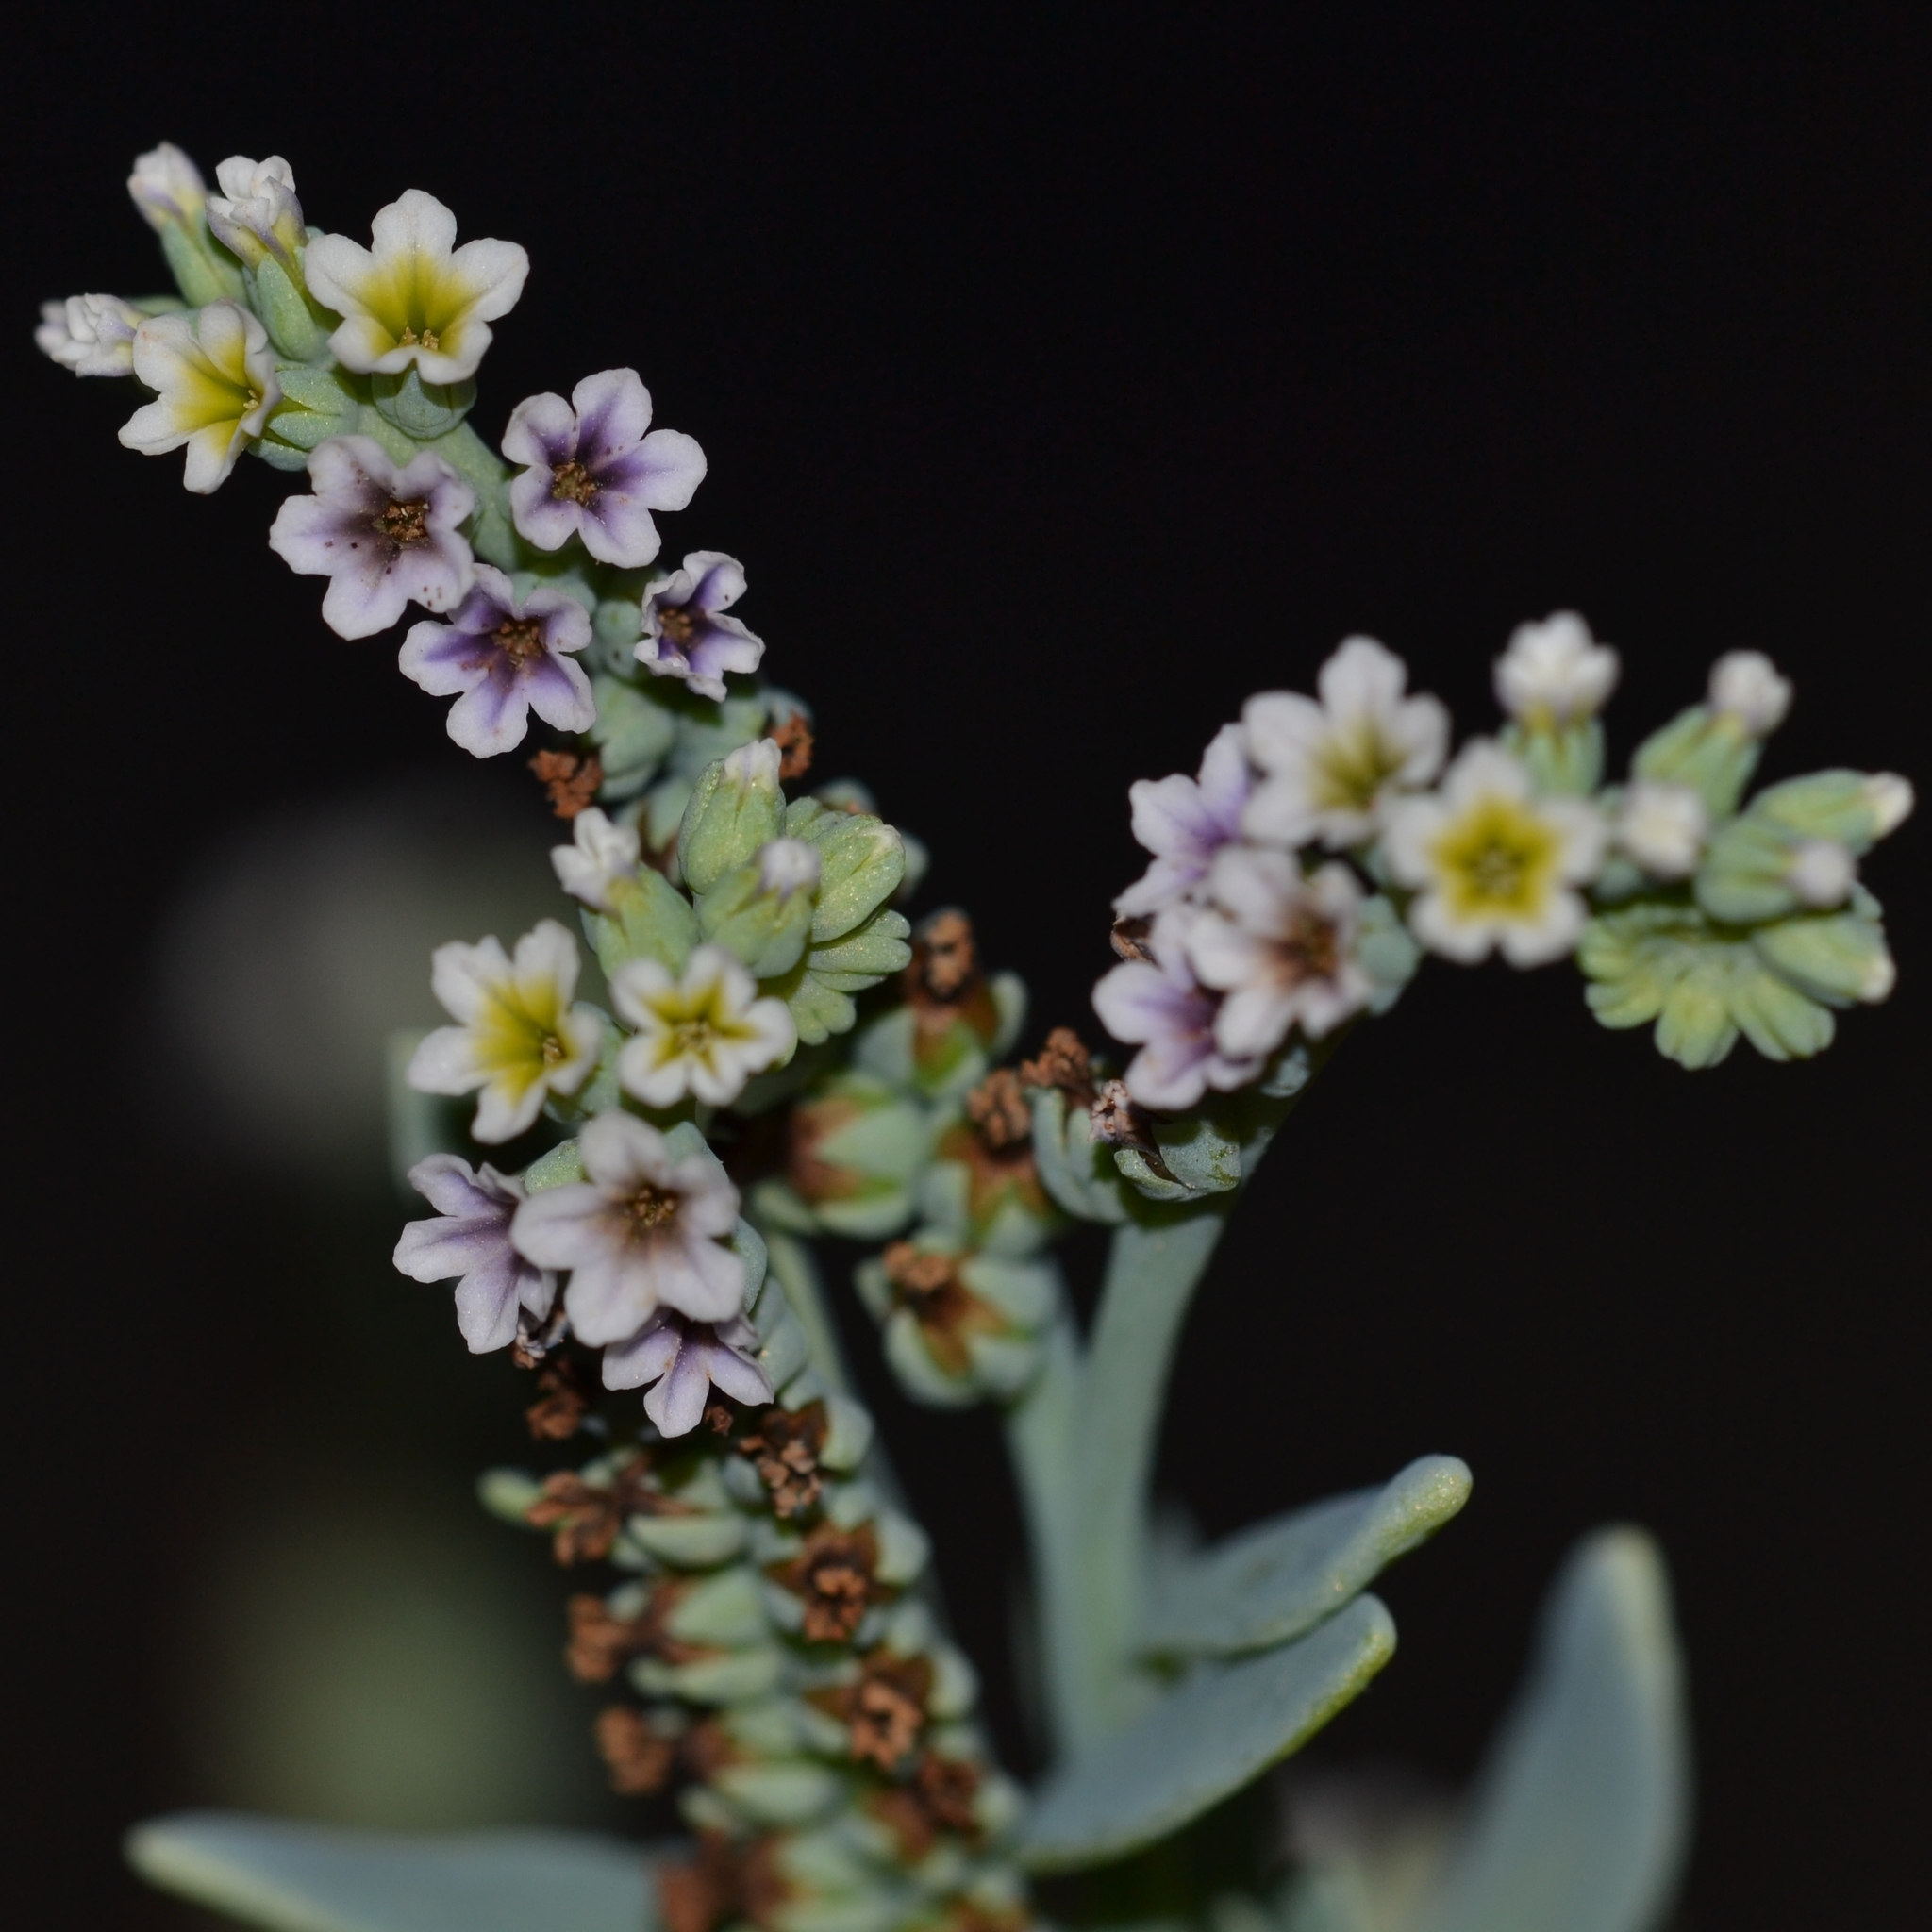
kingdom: Plantae
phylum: Tracheophyta
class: Magnoliopsida
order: Boraginales
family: Heliotropiaceae
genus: Heliotropium
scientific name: Heliotropium curassavicum
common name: Seaside heliotrope
